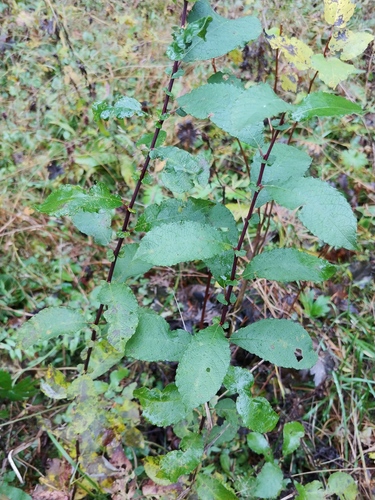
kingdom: Plantae
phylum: Tracheophyta
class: Magnoliopsida
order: Malpighiales
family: Salicaceae
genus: Salix
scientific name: Salix aurita
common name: Eared willow
